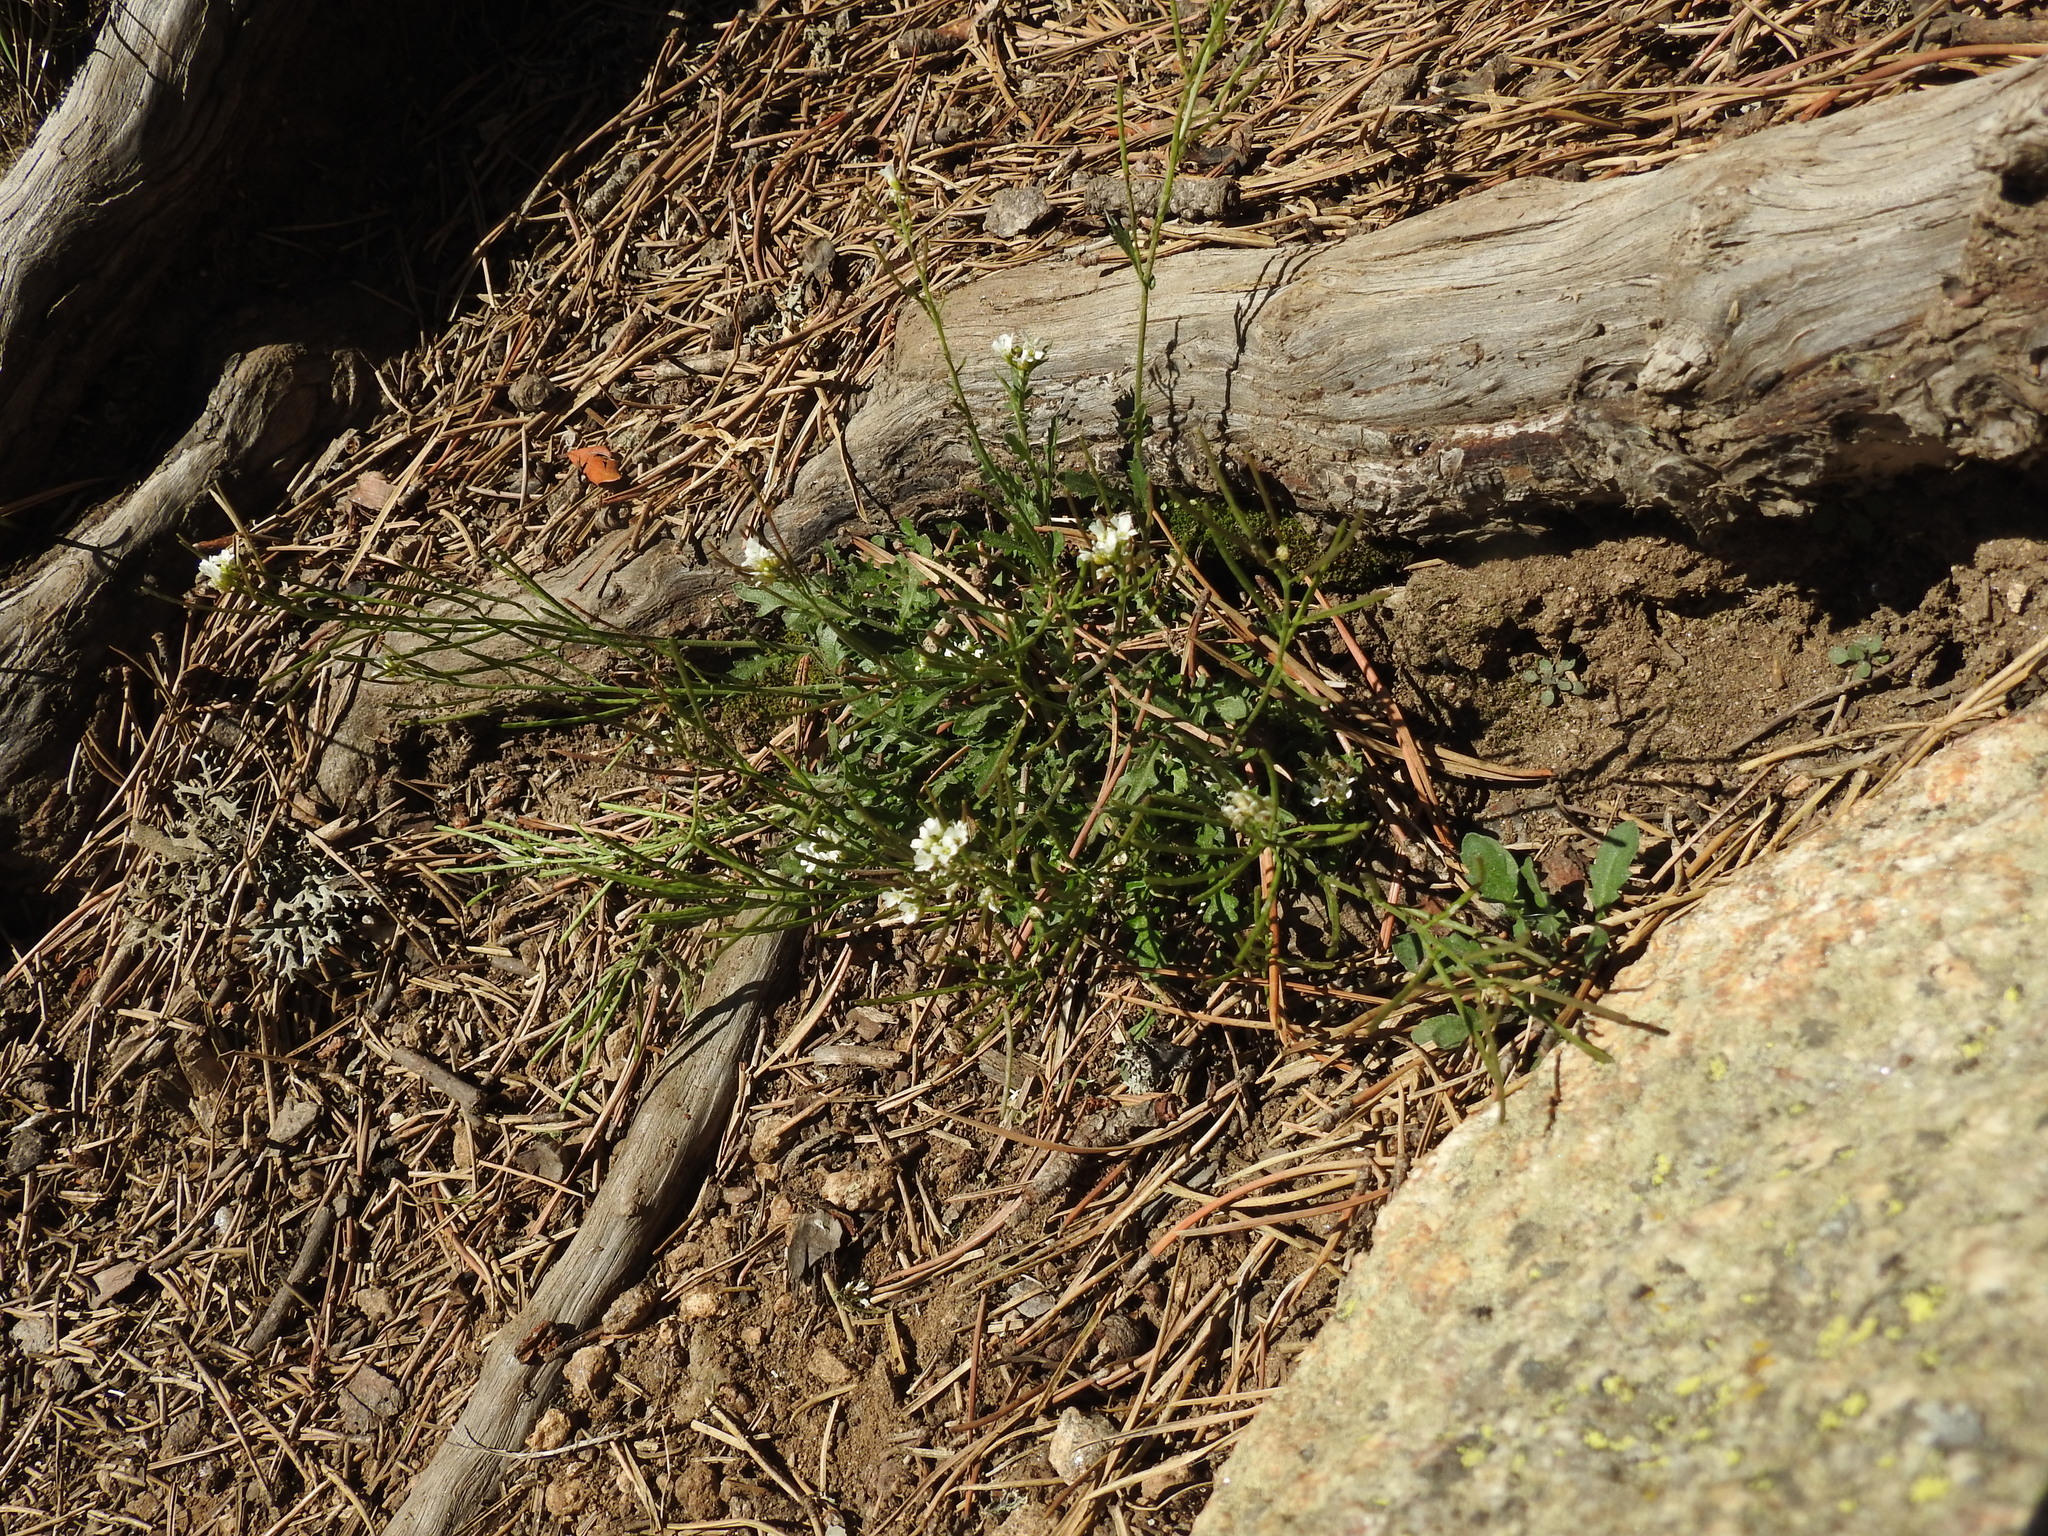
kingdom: Plantae
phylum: Tracheophyta
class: Magnoliopsida
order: Brassicales
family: Brassicaceae
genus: Murbeckiella
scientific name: Murbeckiella pinnatifida
